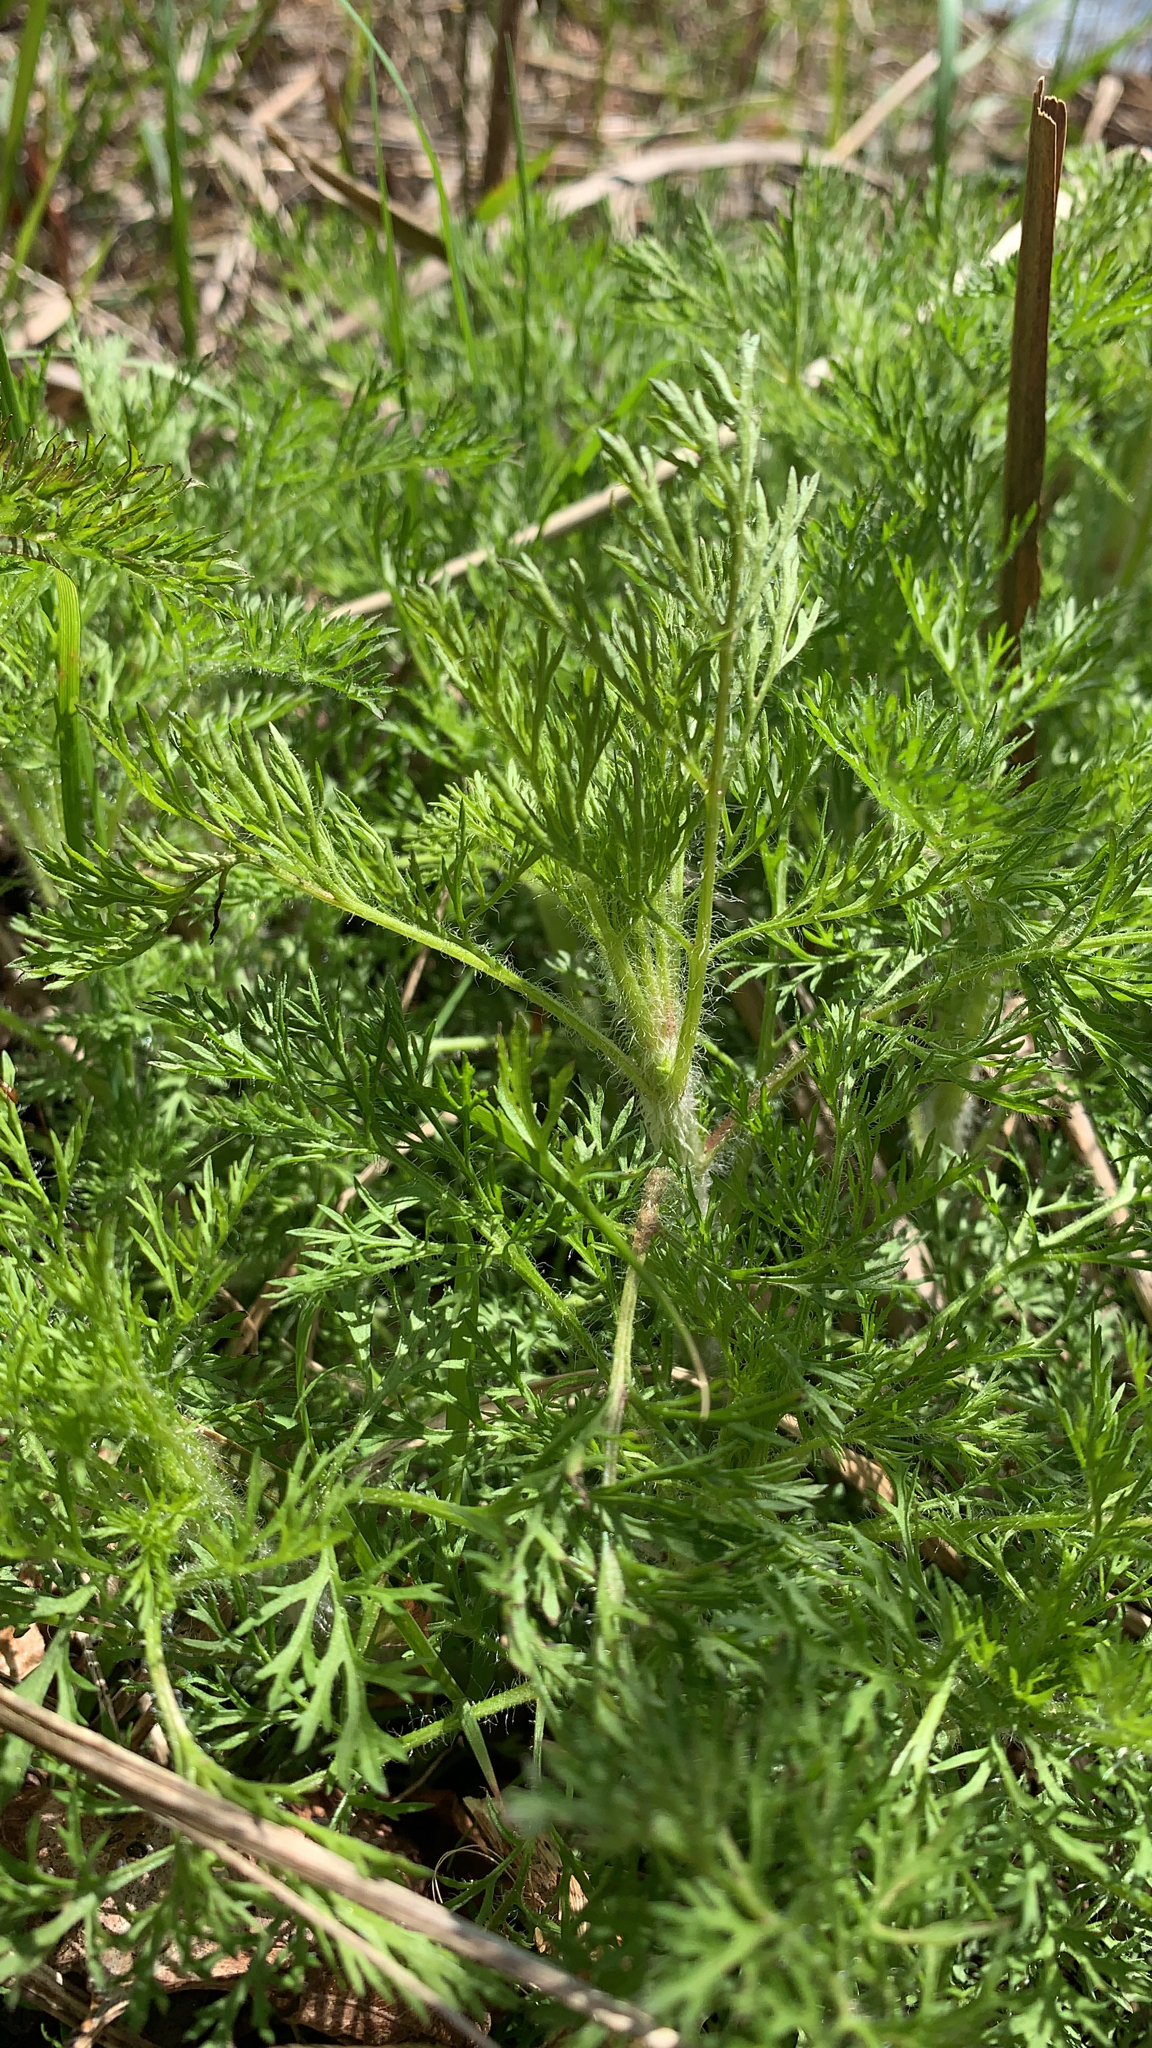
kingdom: Plantae
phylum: Tracheophyta
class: Magnoliopsida
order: Asterales
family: Asteraceae
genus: Eupatorium
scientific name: Eupatorium capillifolium
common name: Dog-fennel
